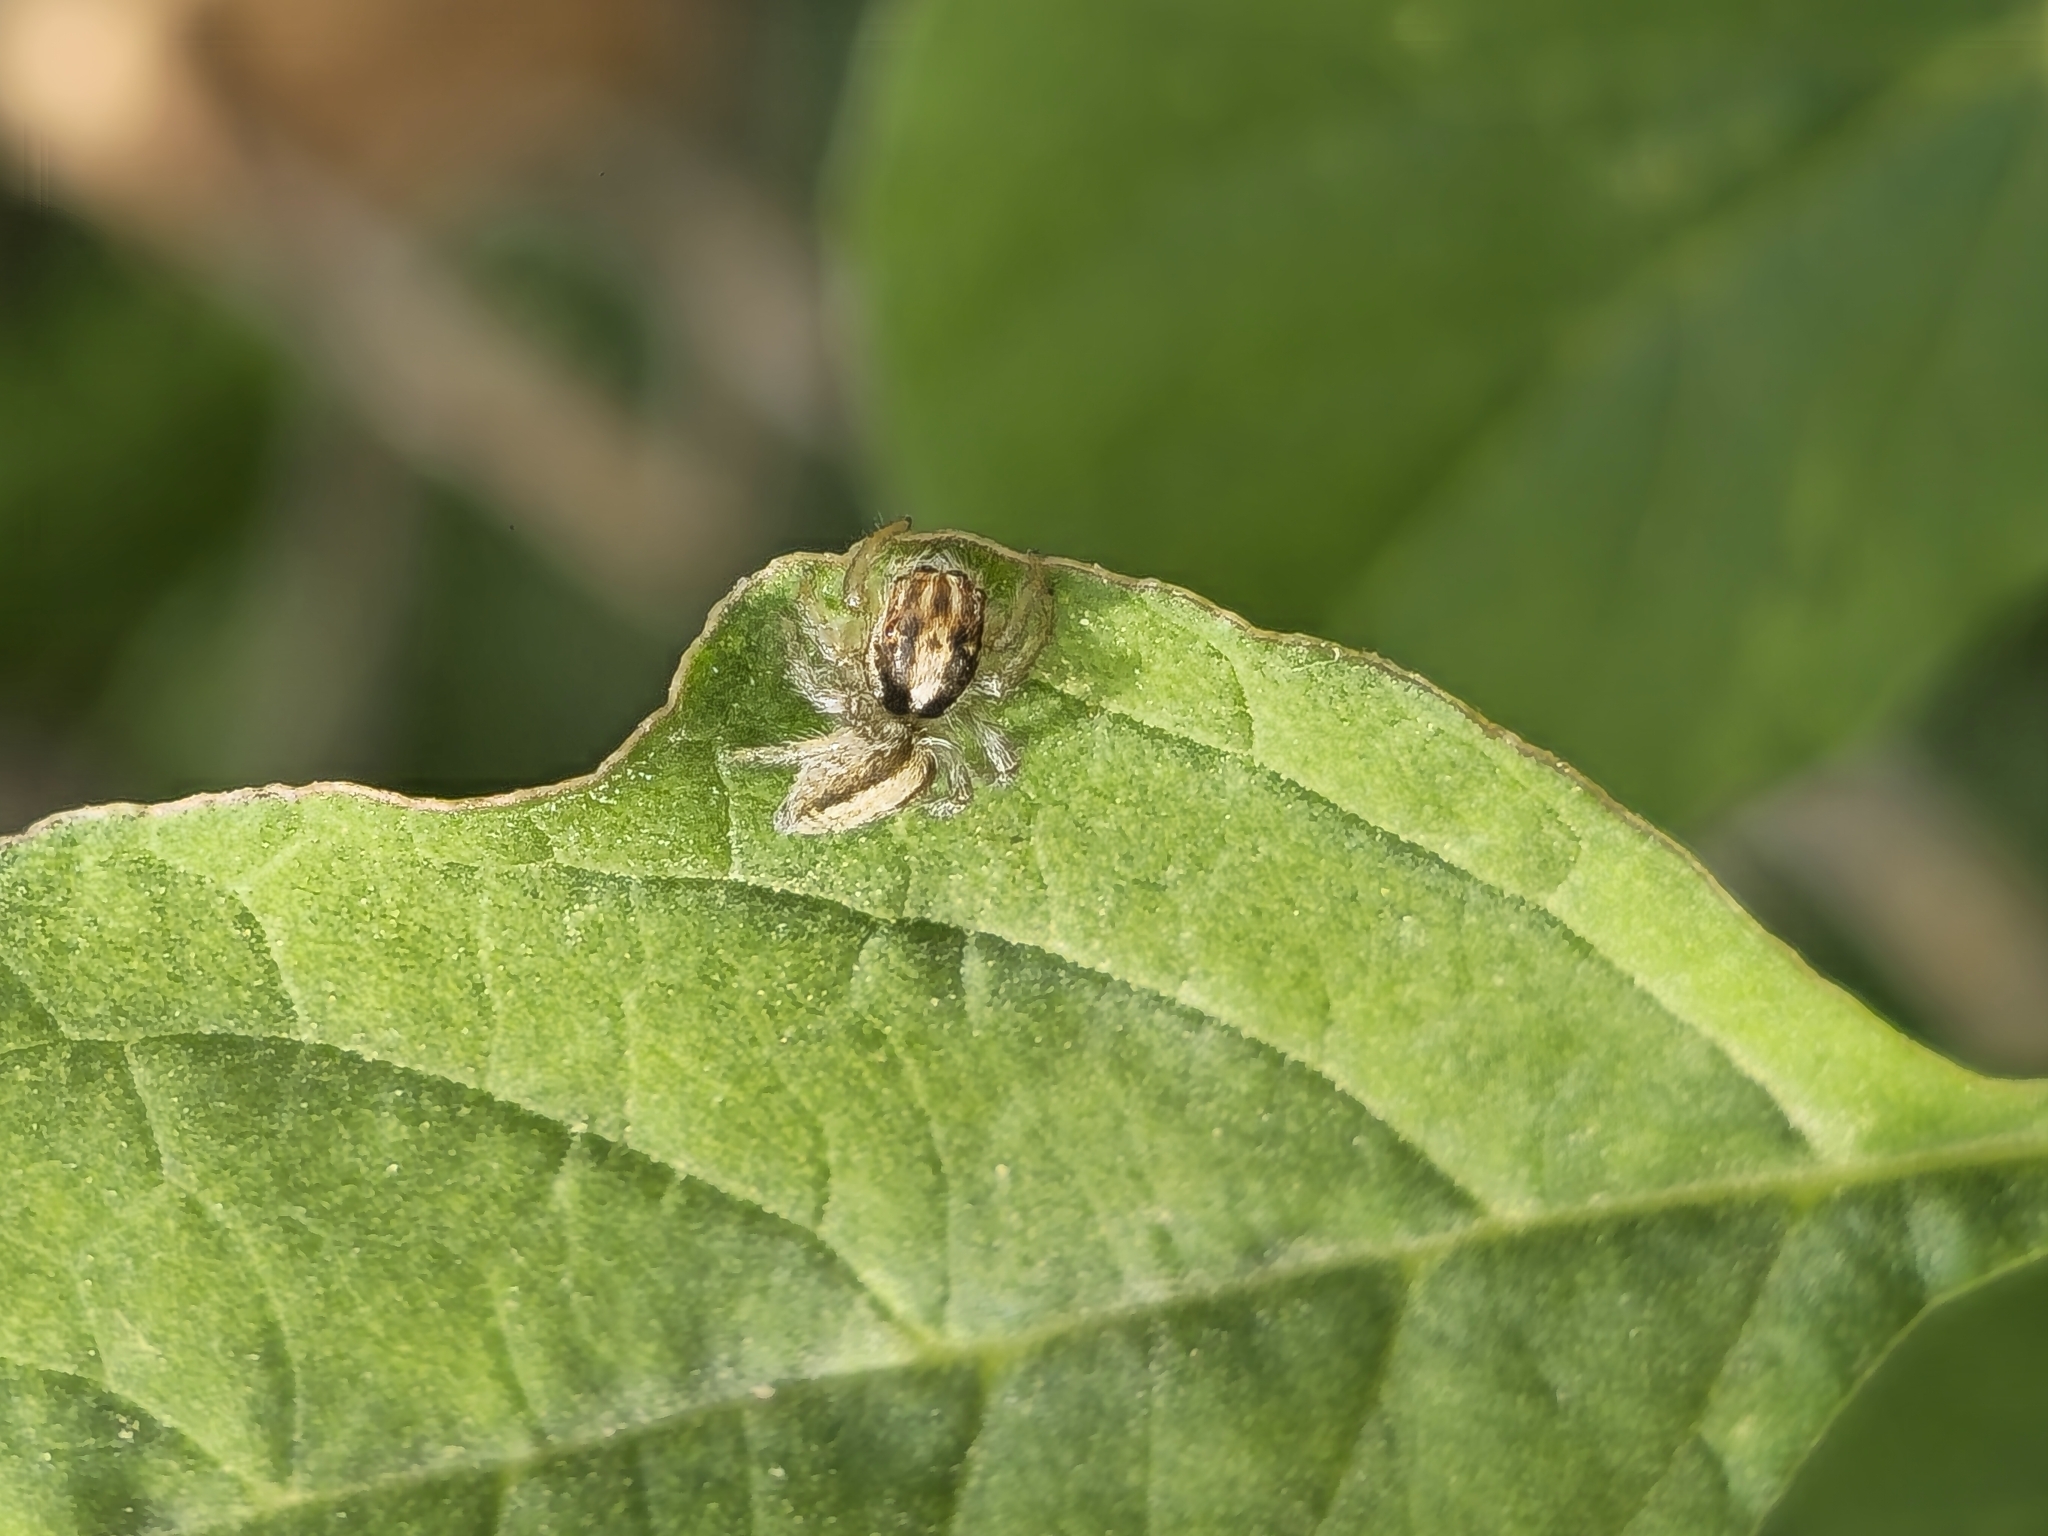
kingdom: Animalia
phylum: Arthropoda
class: Arachnida
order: Araneae
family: Salticidae
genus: Megafreya
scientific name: Megafreya sutrix
